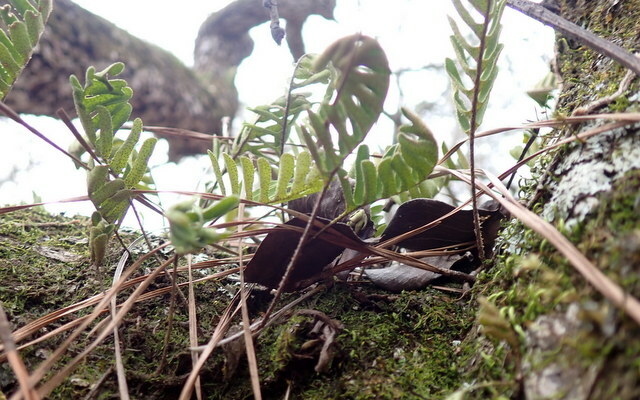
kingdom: Plantae
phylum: Tracheophyta
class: Polypodiopsida
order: Polypodiales
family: Polypodiaceae
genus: Pleopeltis
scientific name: Pleopeltis michauxiana
